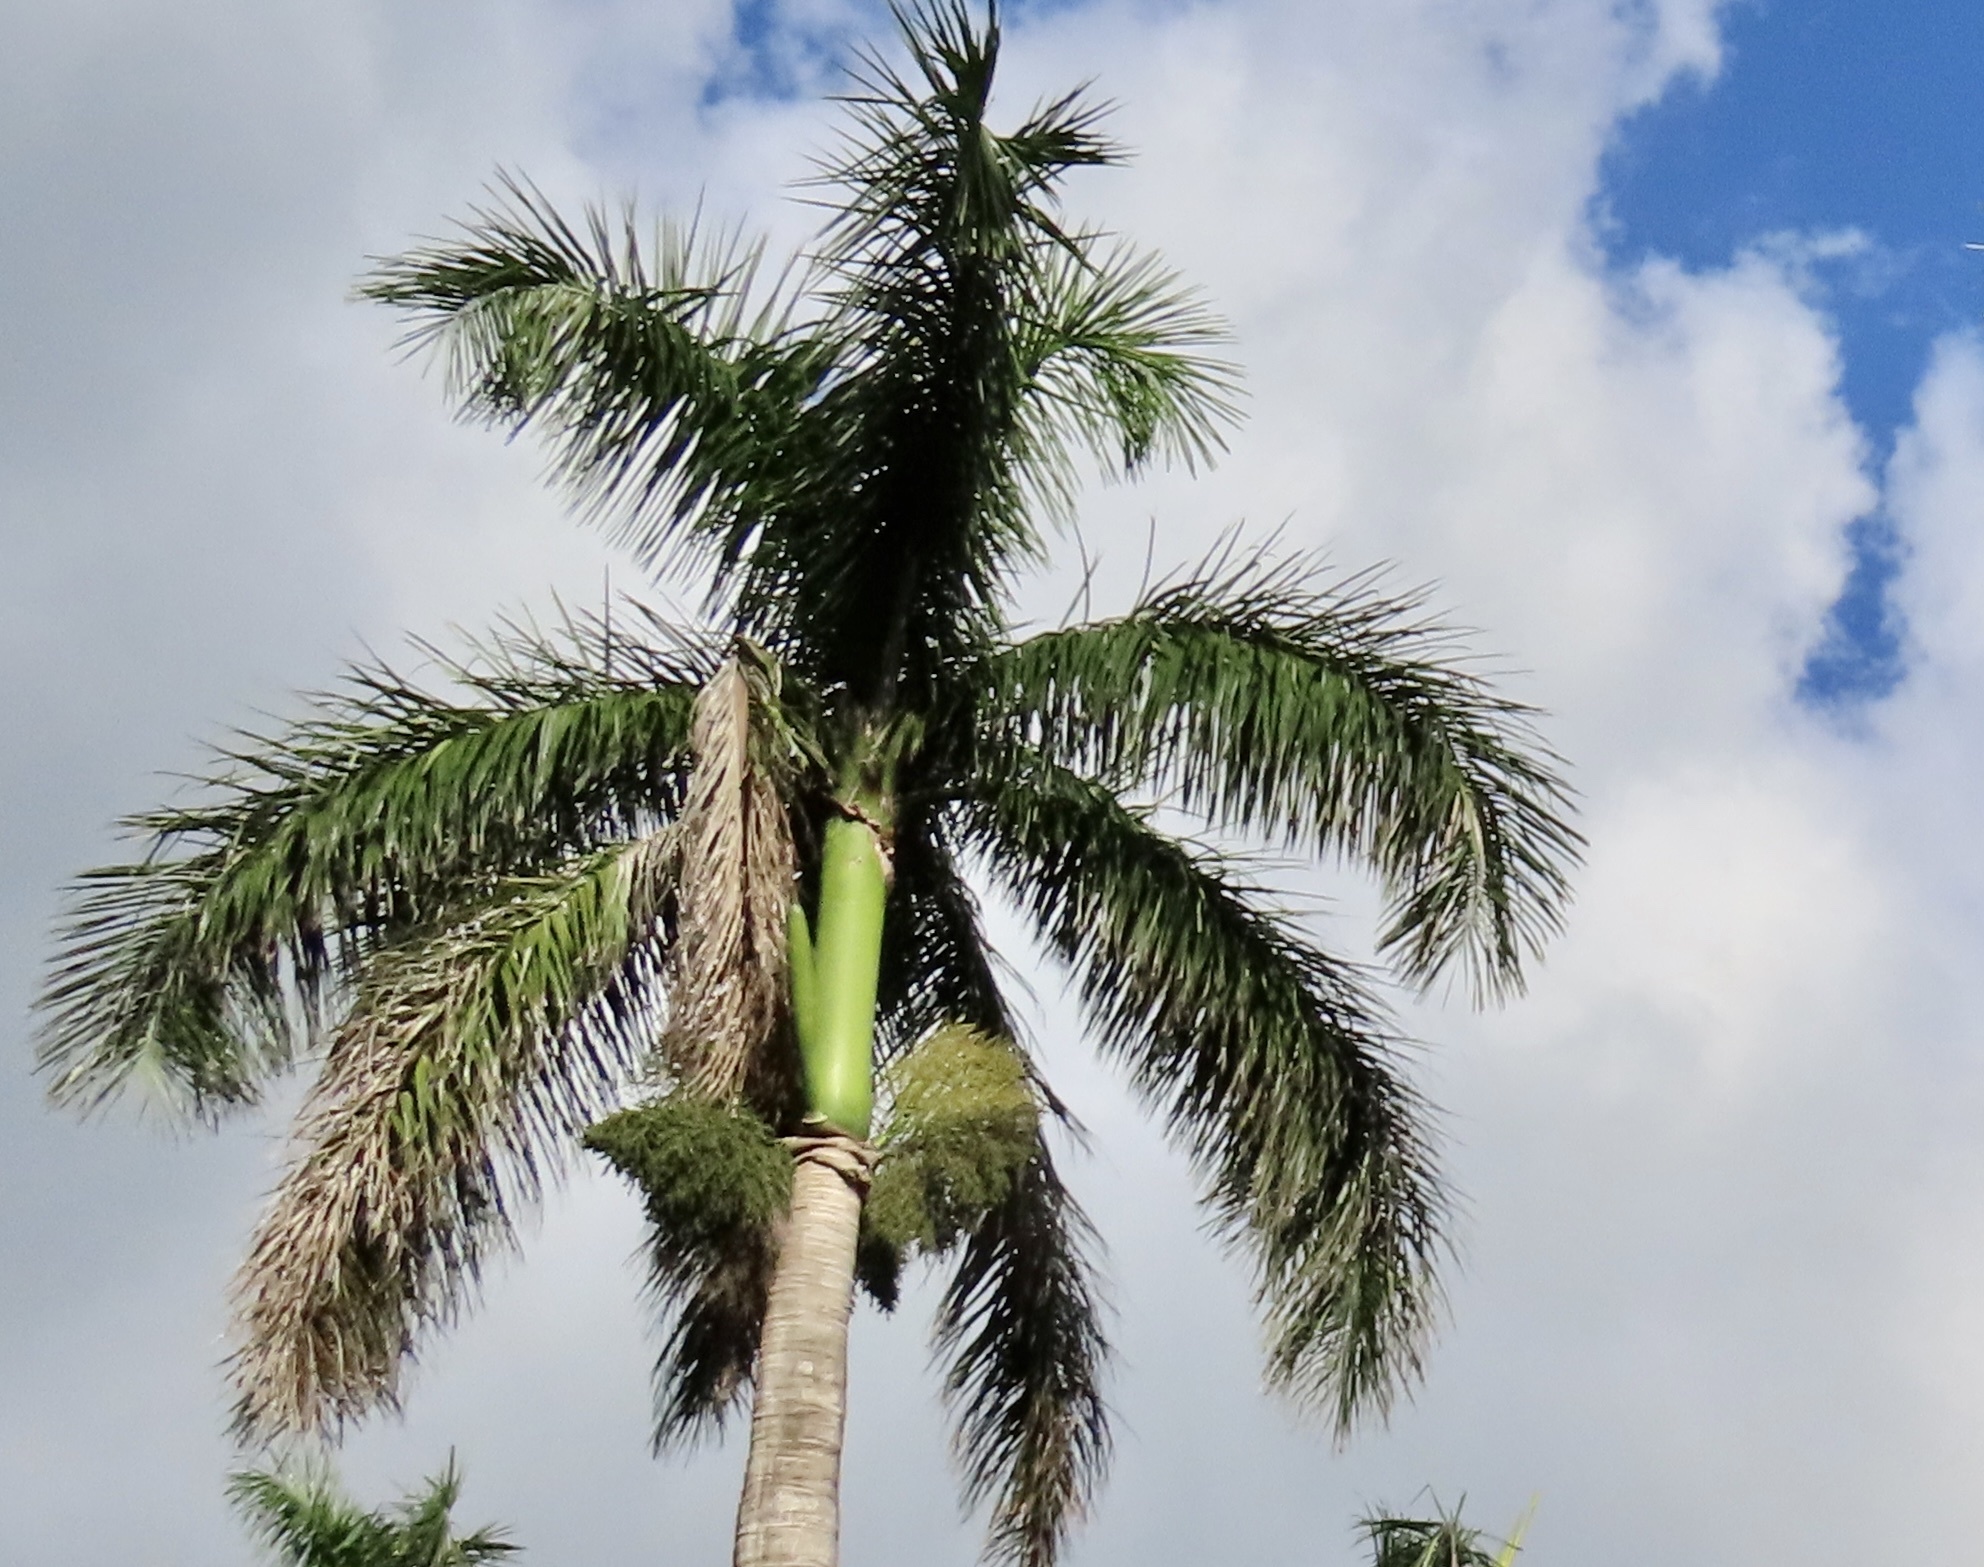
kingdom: Plantae
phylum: Tracheophyta
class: Liliopsida
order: Arecales
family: Arecaceae
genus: Roystonea
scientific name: Roystonea regia
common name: Florida royal palm
